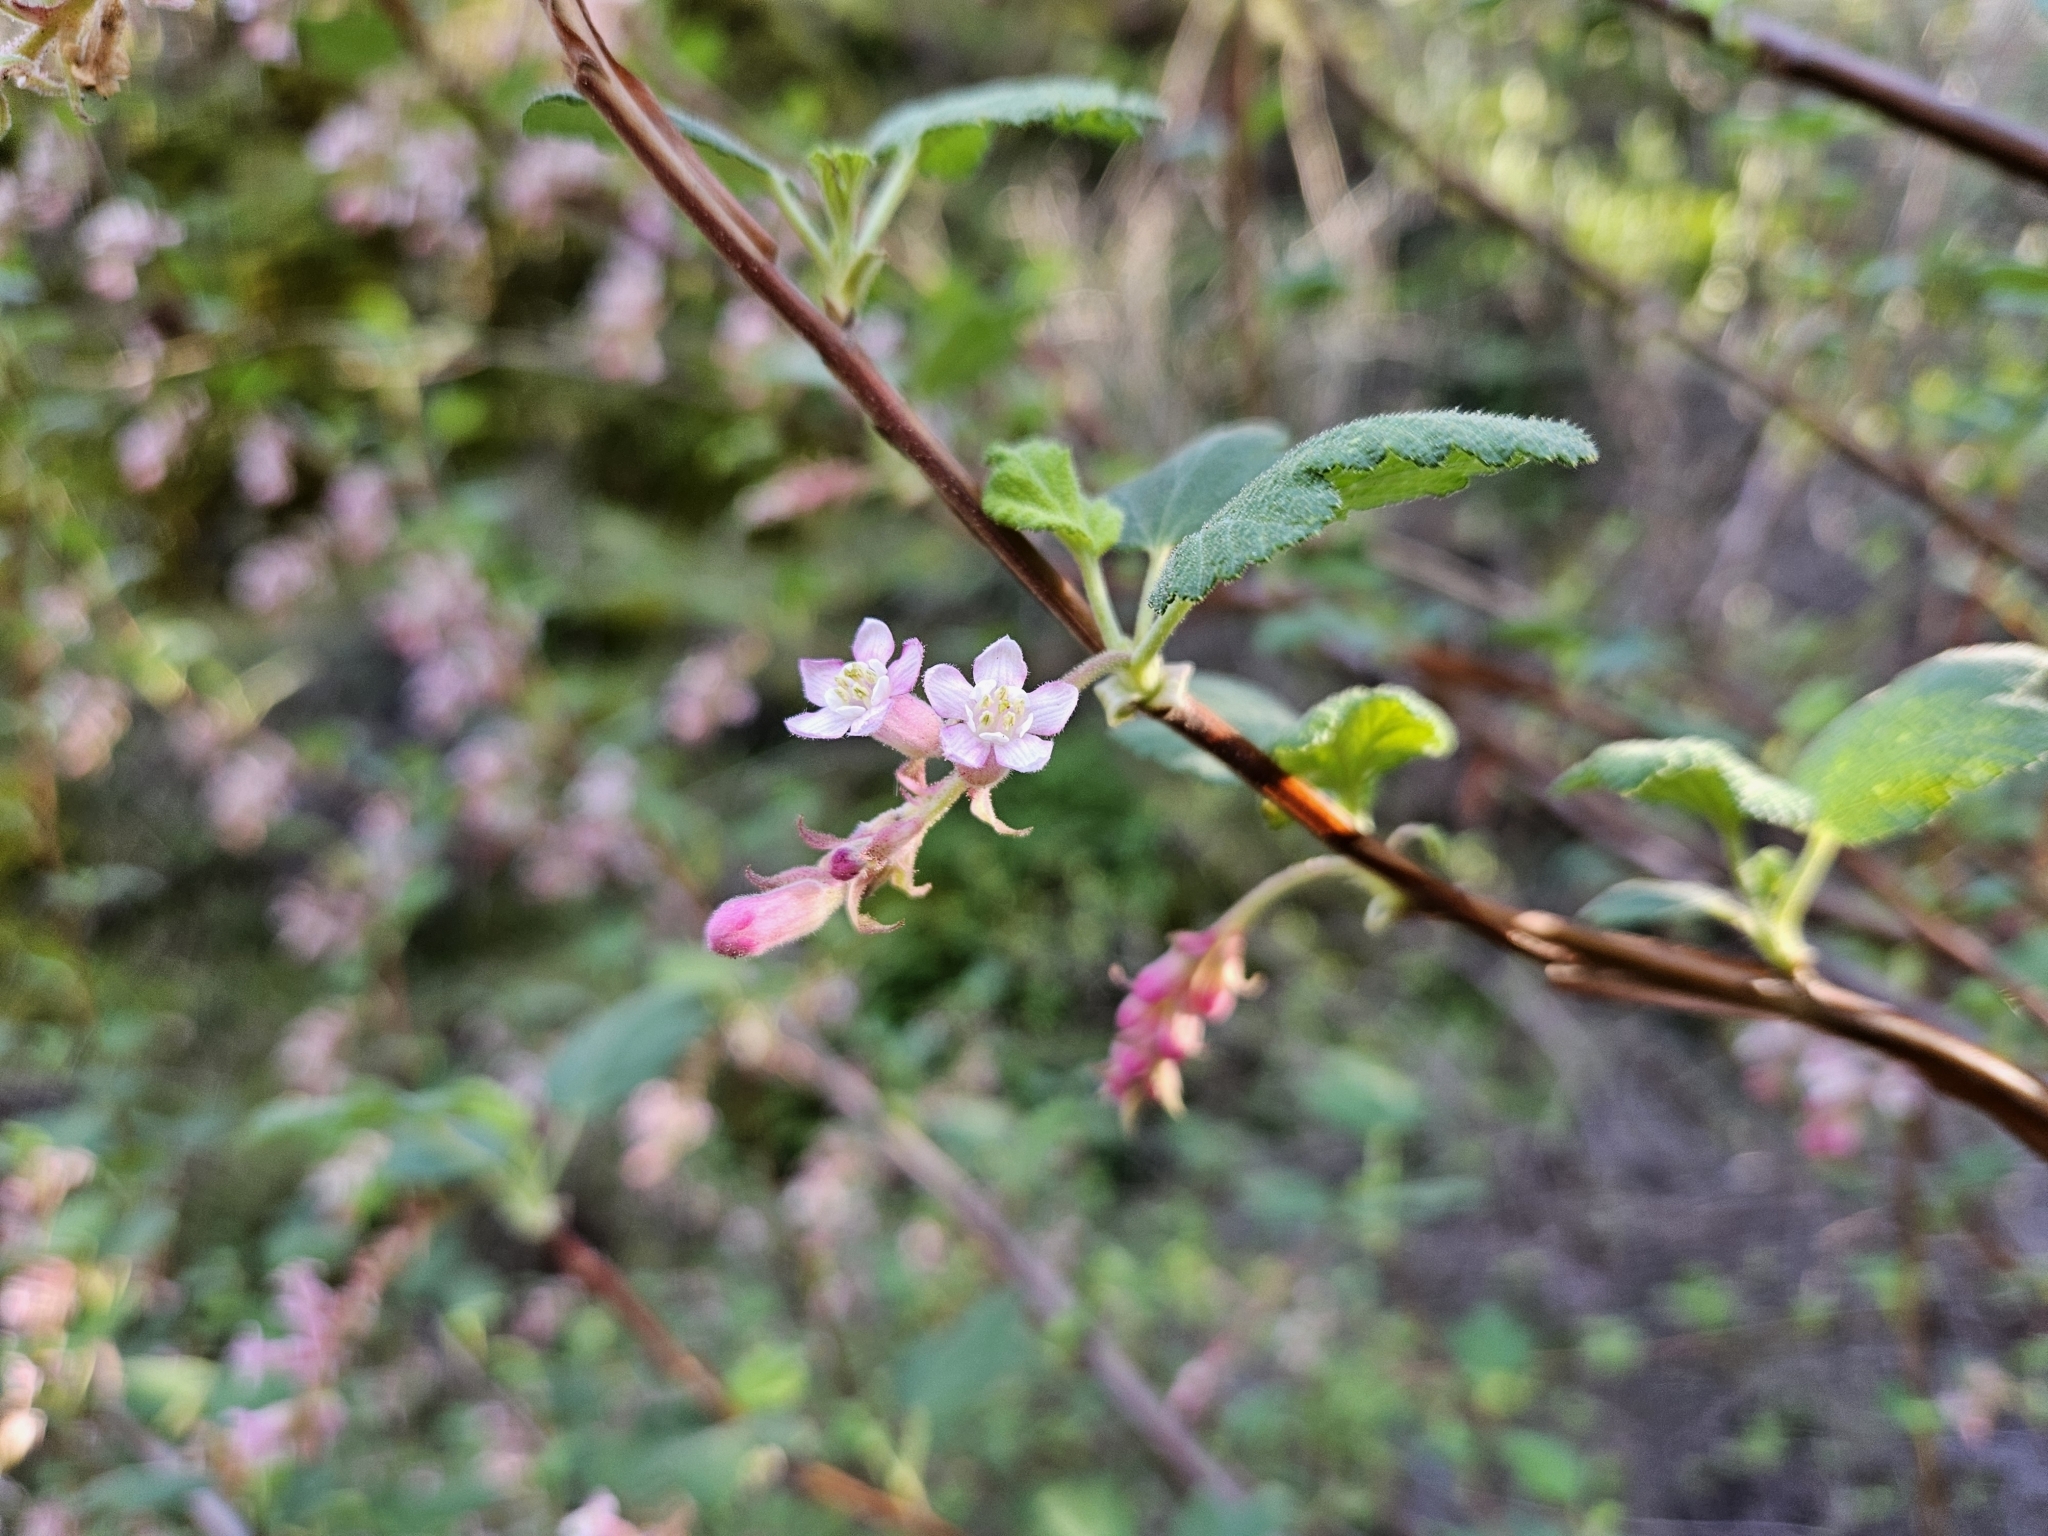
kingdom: Plantae
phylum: Tracheophyta
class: Magnoliopsida
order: Saxifragales
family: Grossulariaceae
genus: Ribes
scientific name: Ribes malvaceum
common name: Chaparral currant
